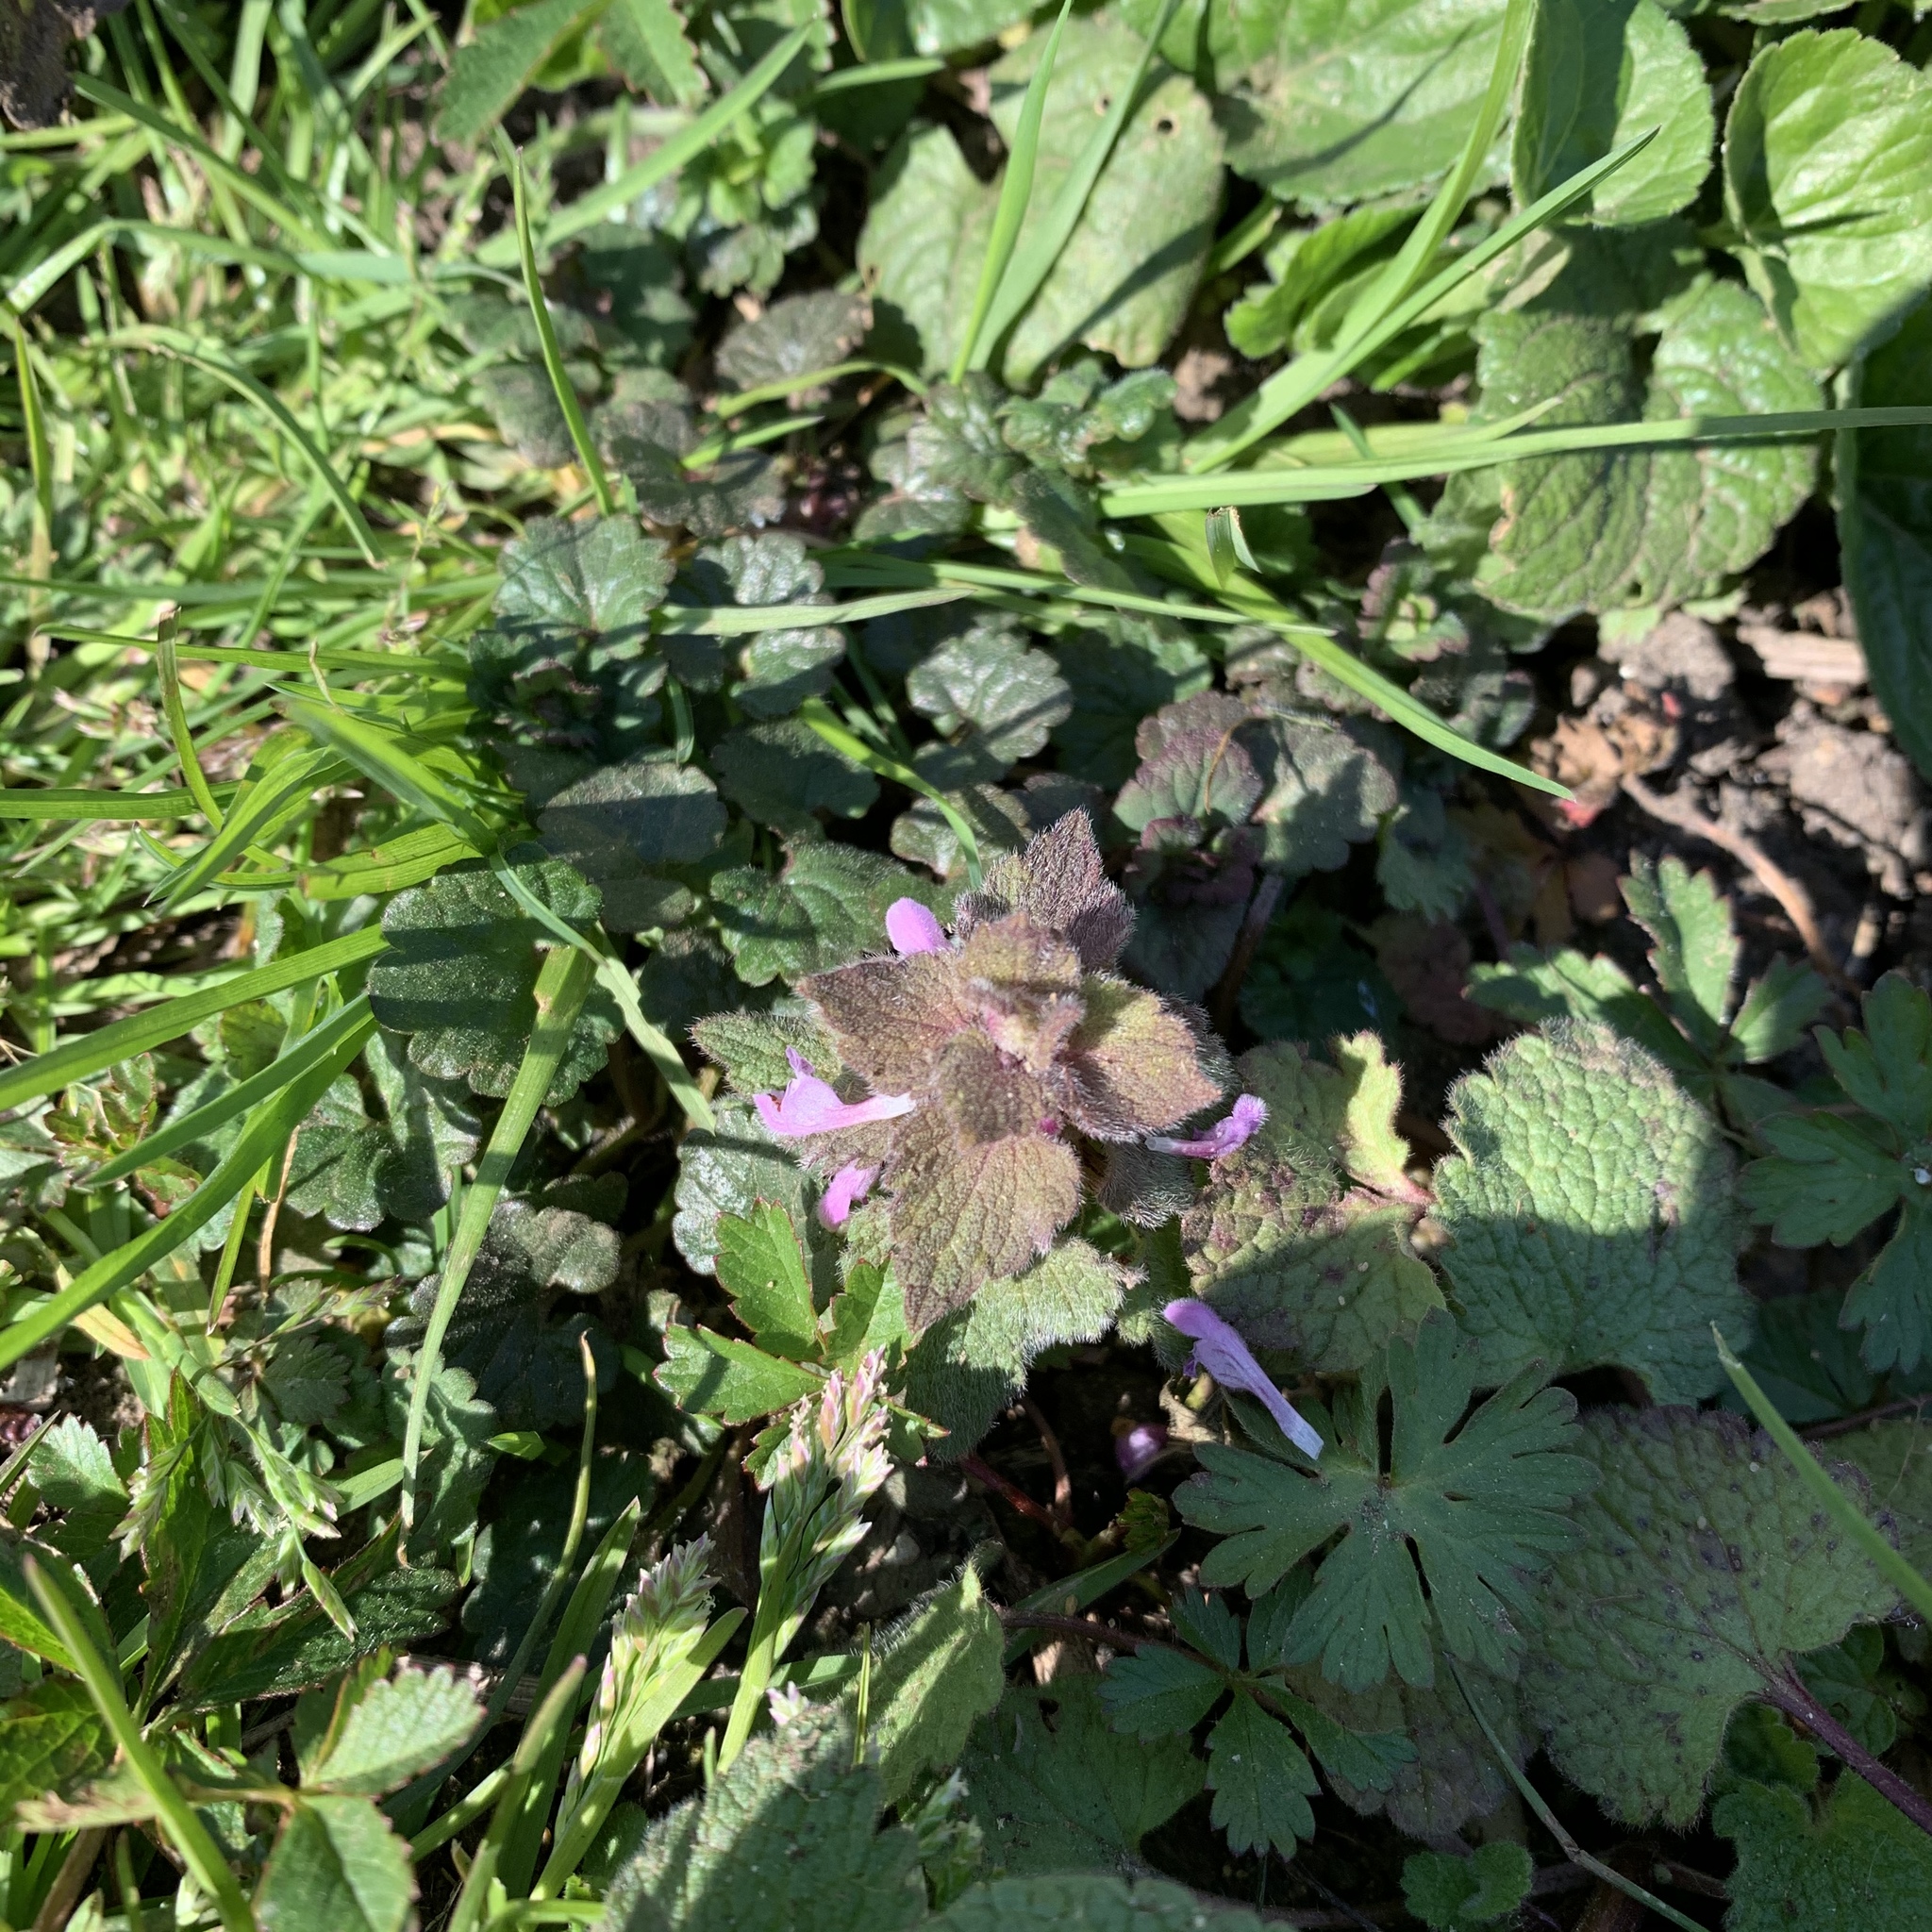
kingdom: Plantae
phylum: Tracheophyta
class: Magnoliopsida
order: Lamiales
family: Lamiaceae
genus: Lamium
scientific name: Lamium purpureum
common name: Red dead-nettle
